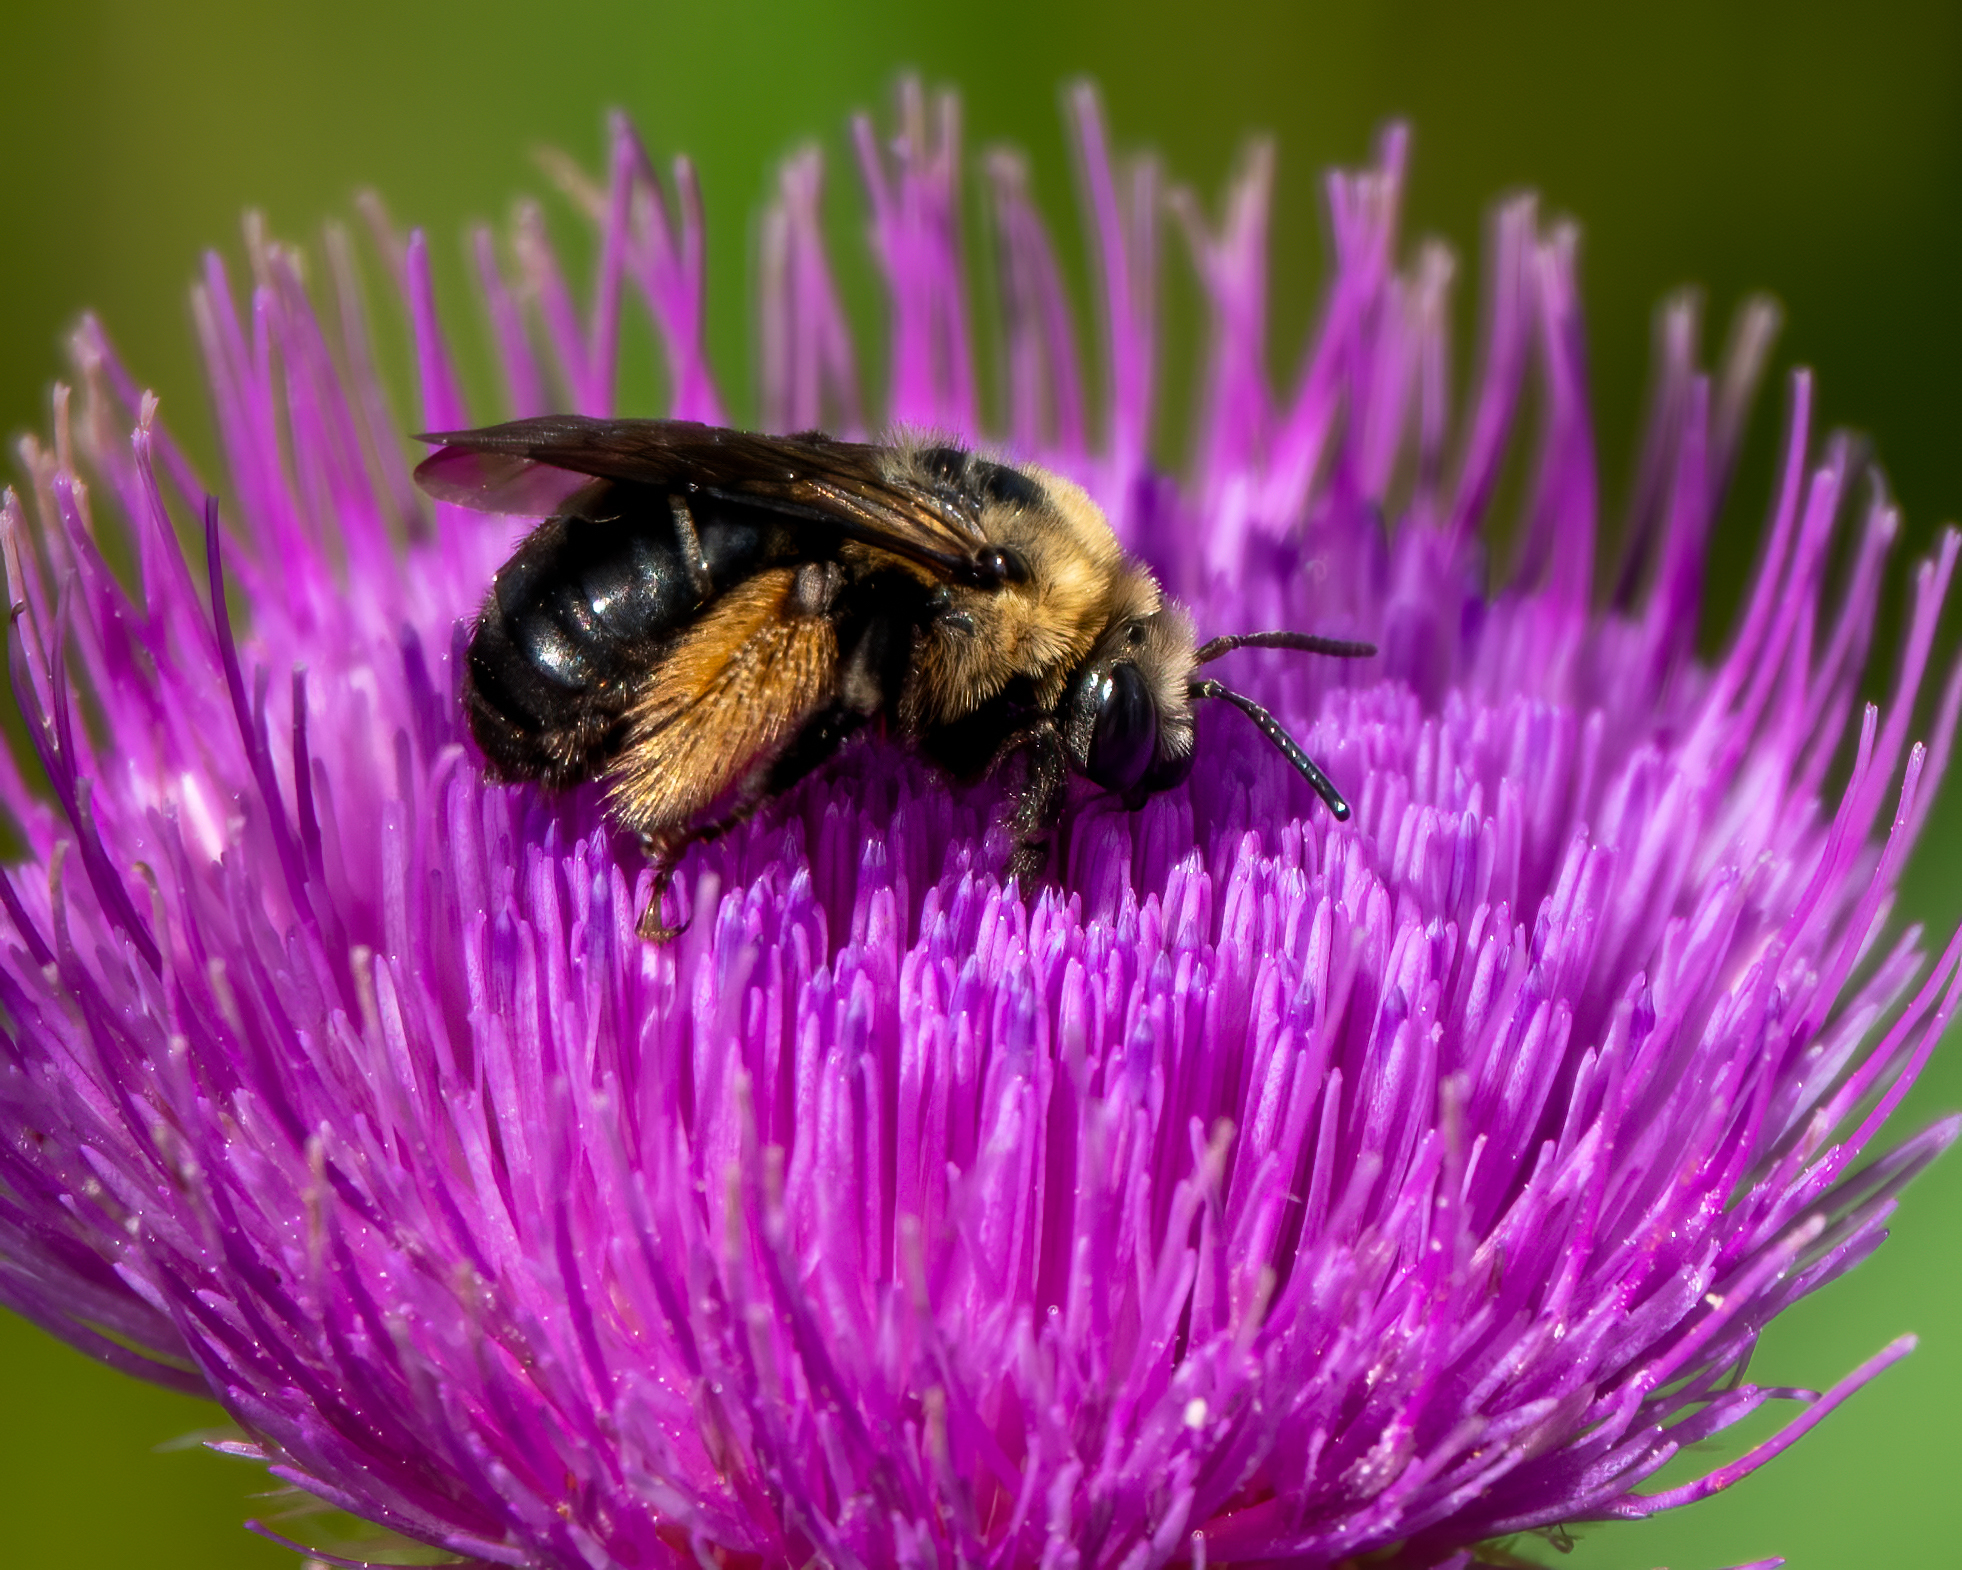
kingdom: Animalia
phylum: Arthropoda
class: Insecta
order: Hymenoptera
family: Apidae
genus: Melissodes
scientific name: Melissodes desponsus
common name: Thistle long-horned bee
